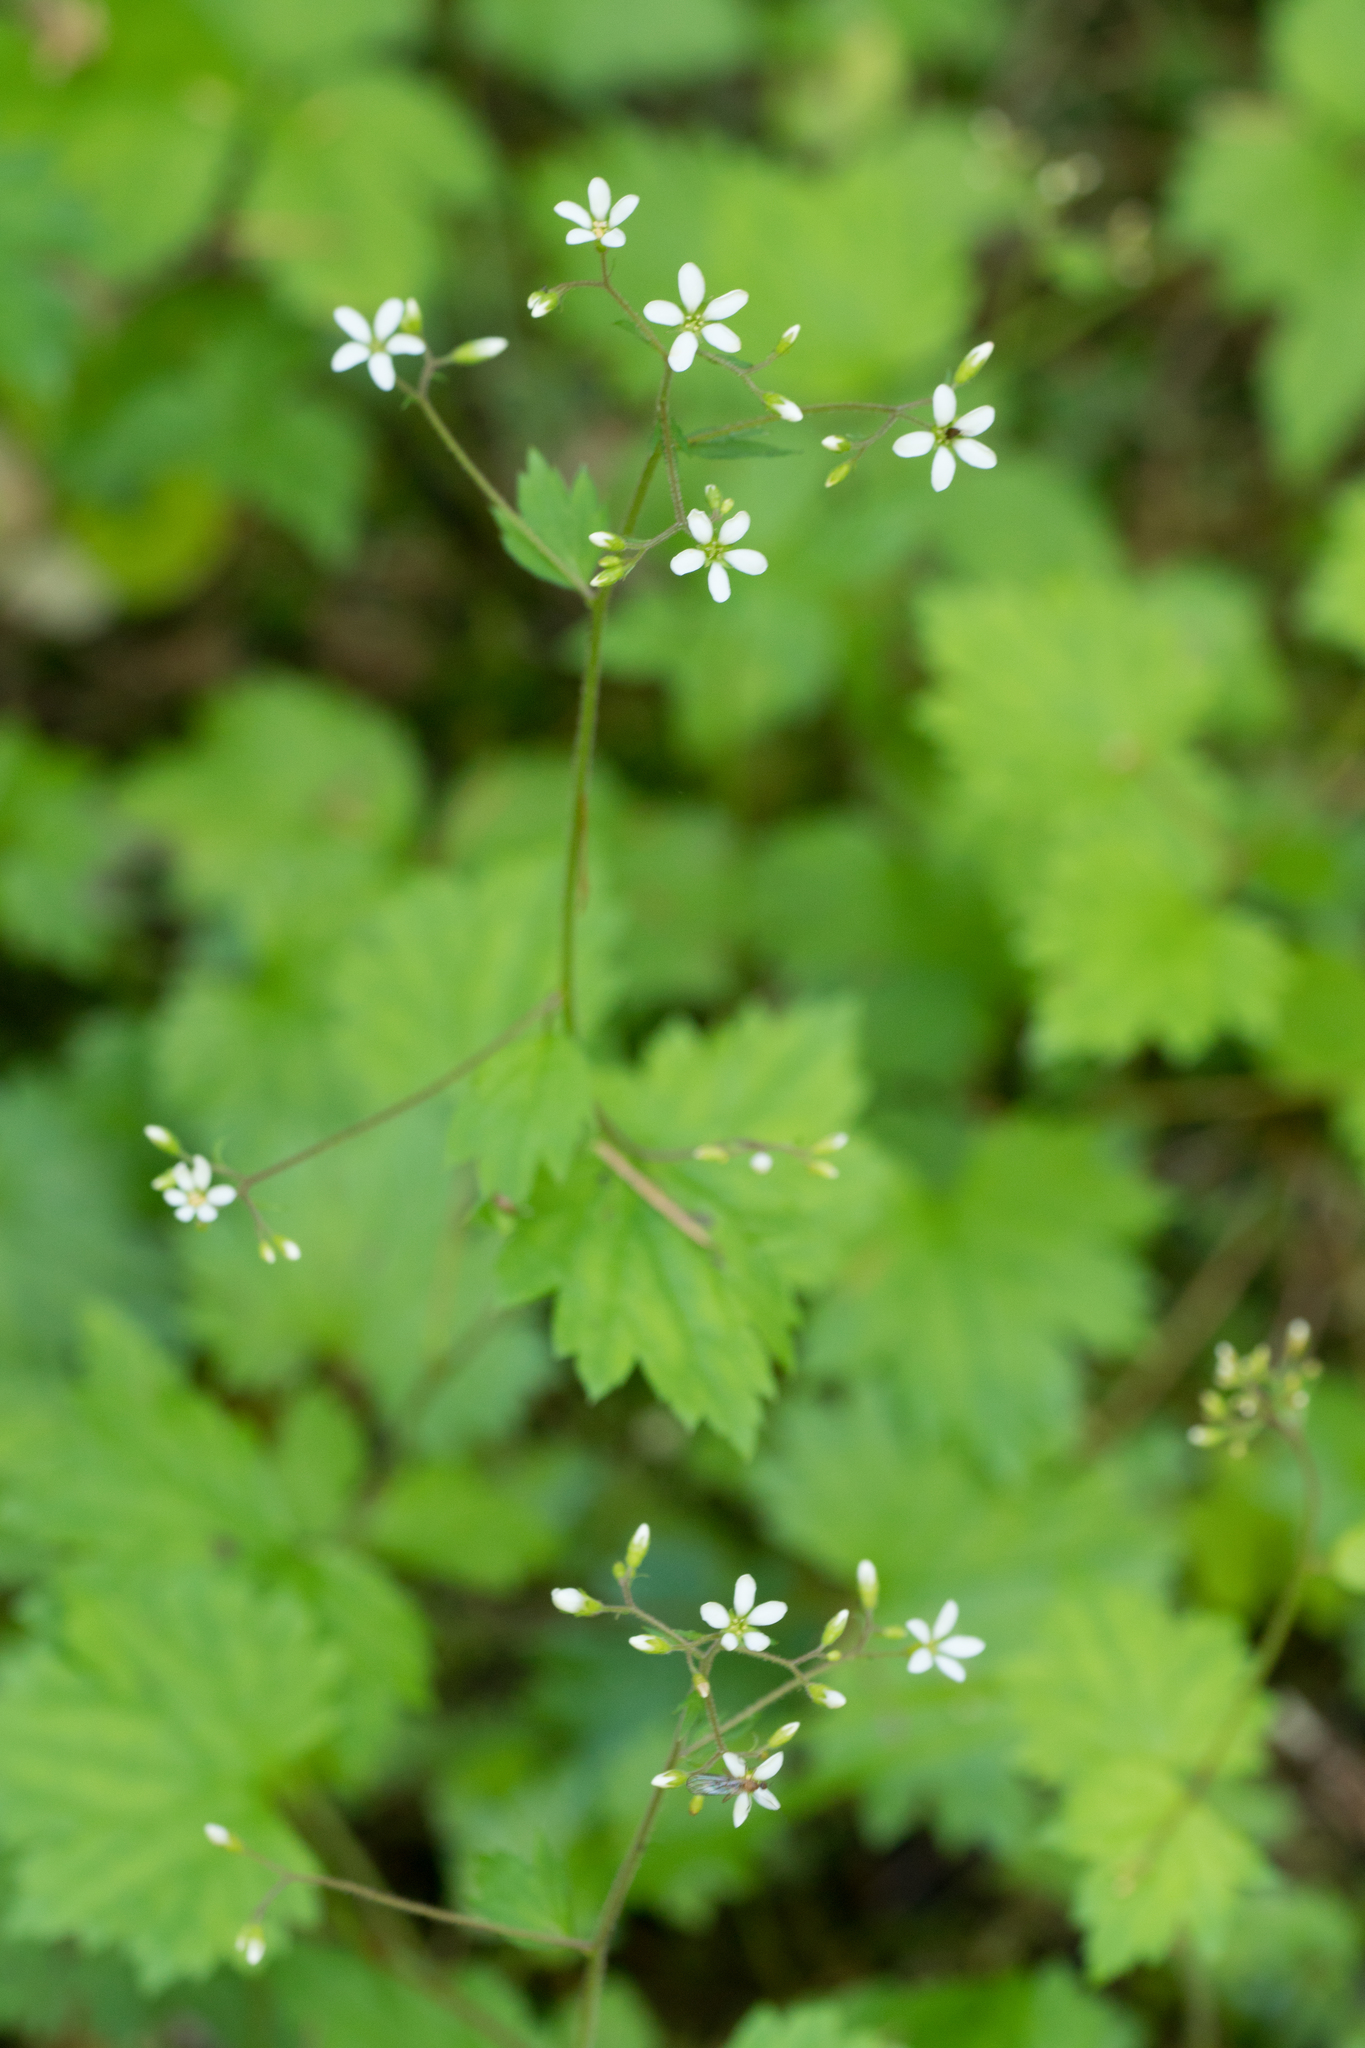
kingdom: Plantae
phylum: Tracheophyta
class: Magnoliopsida
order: Saxifragales
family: Saxifragaceae
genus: Boykinia
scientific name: Boykinia occidentalis
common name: Coast boykinia
